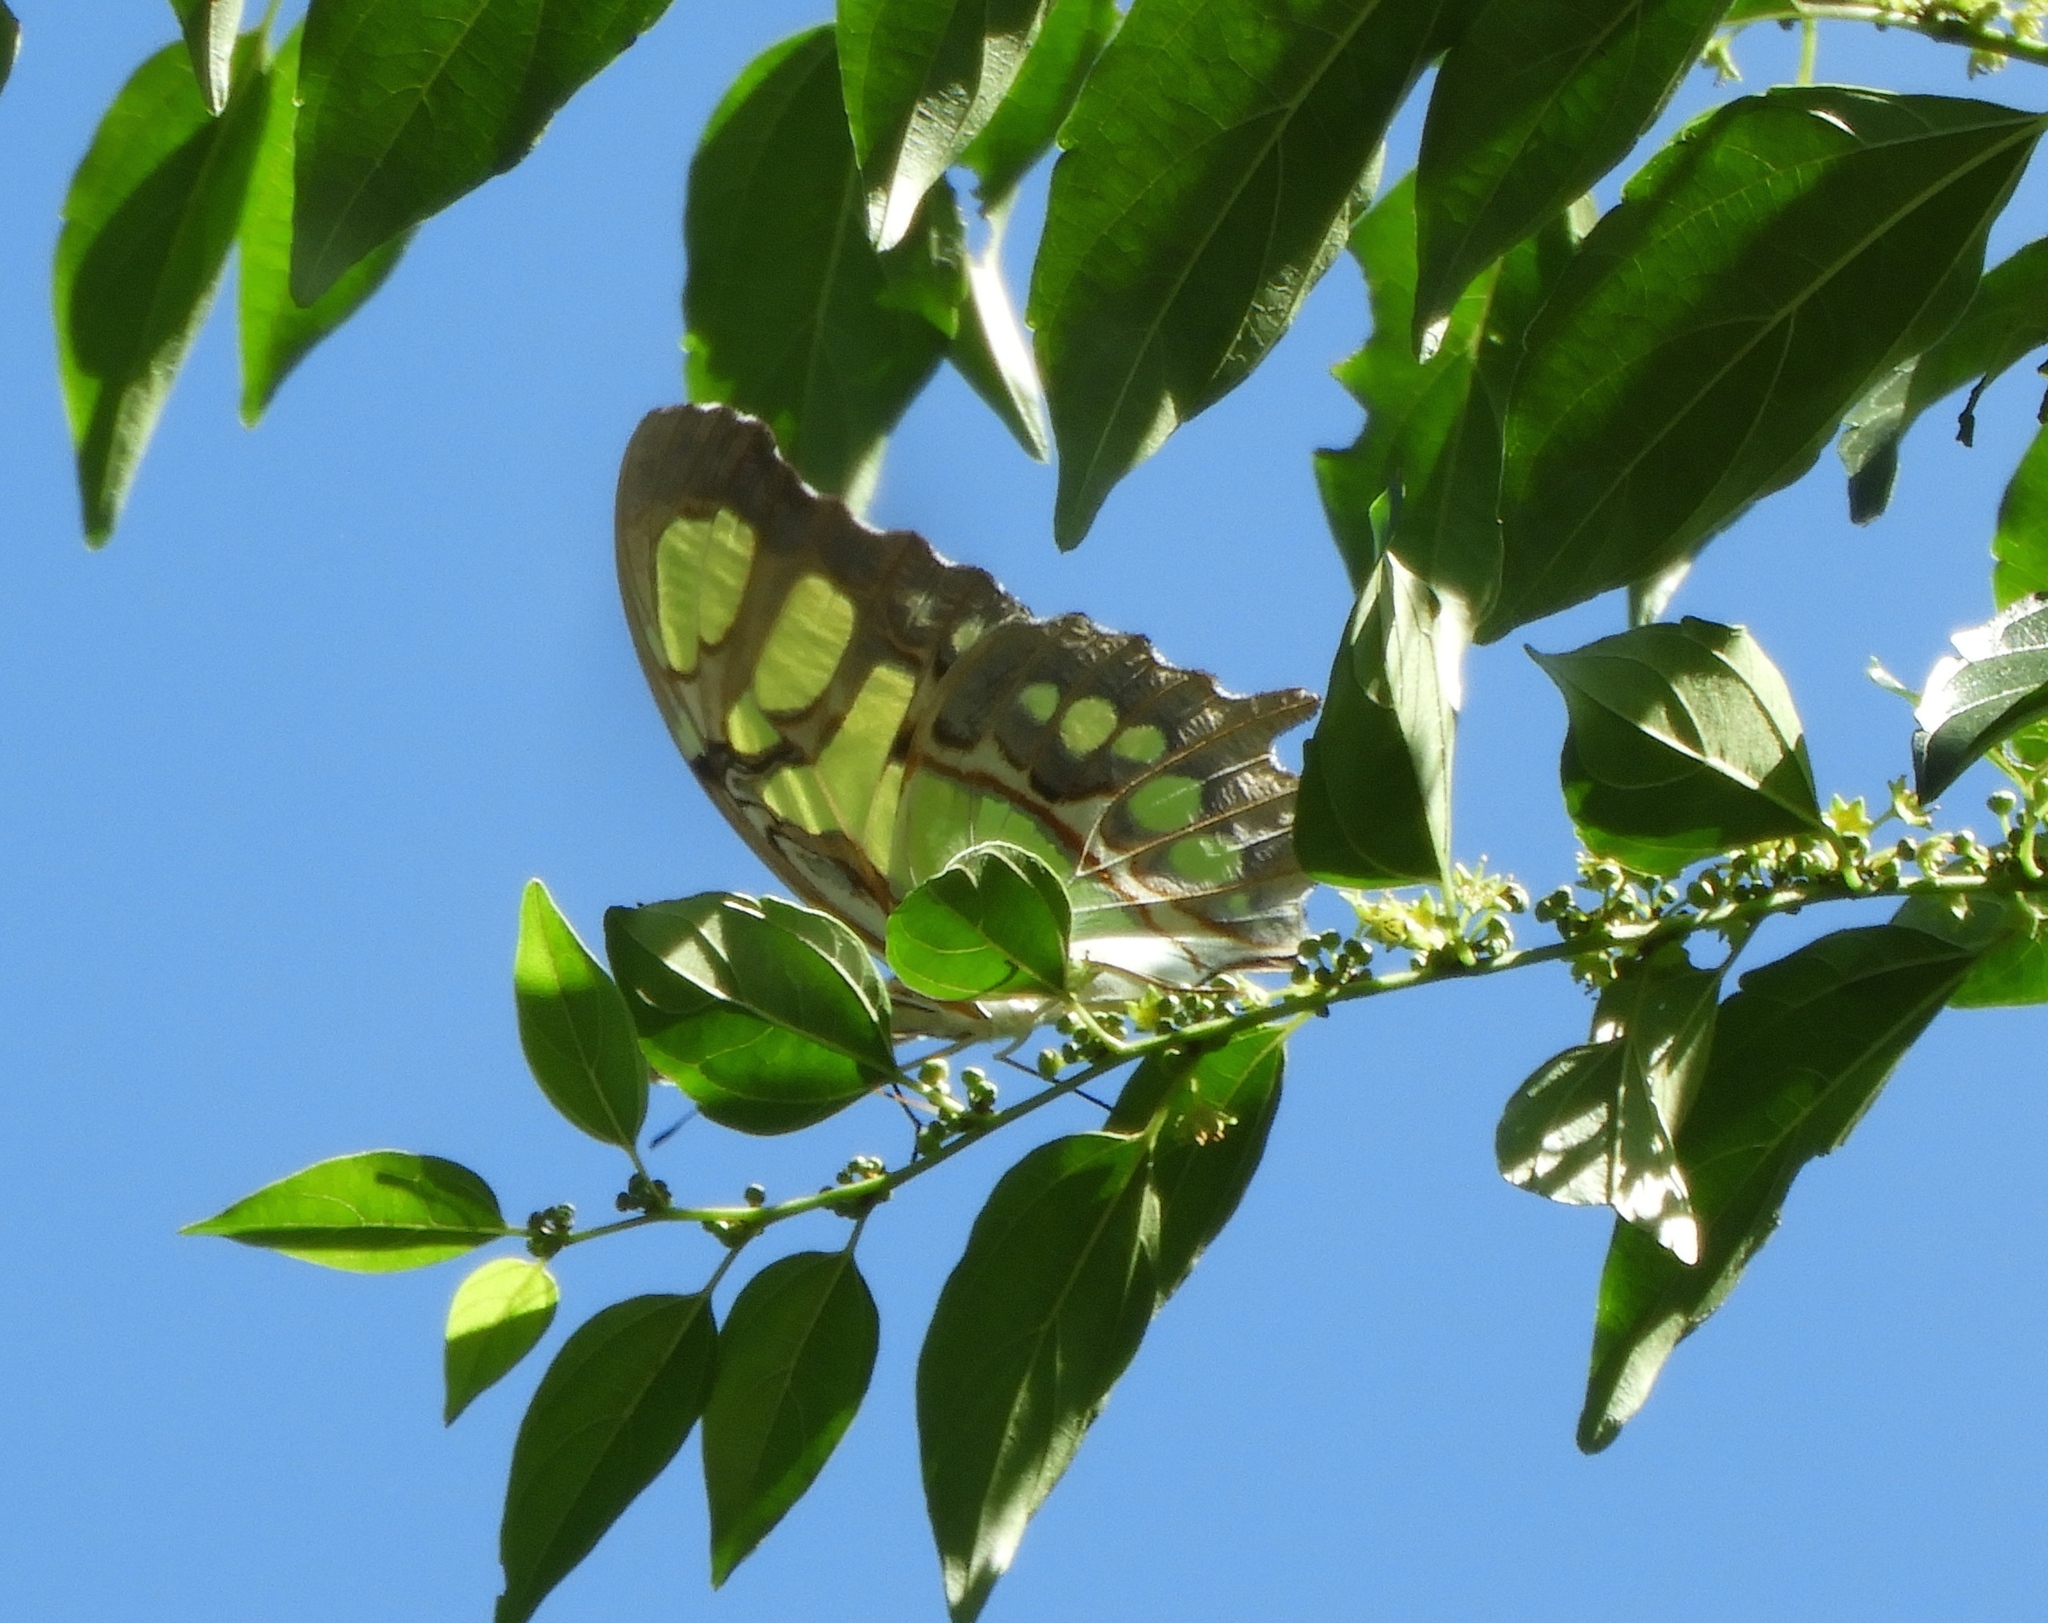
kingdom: Animalia
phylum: Arthropoda
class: Insecta
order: Lepidoptera
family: Nymphalidae
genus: Siproeta
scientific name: Siproeta stelenes
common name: Malachite
